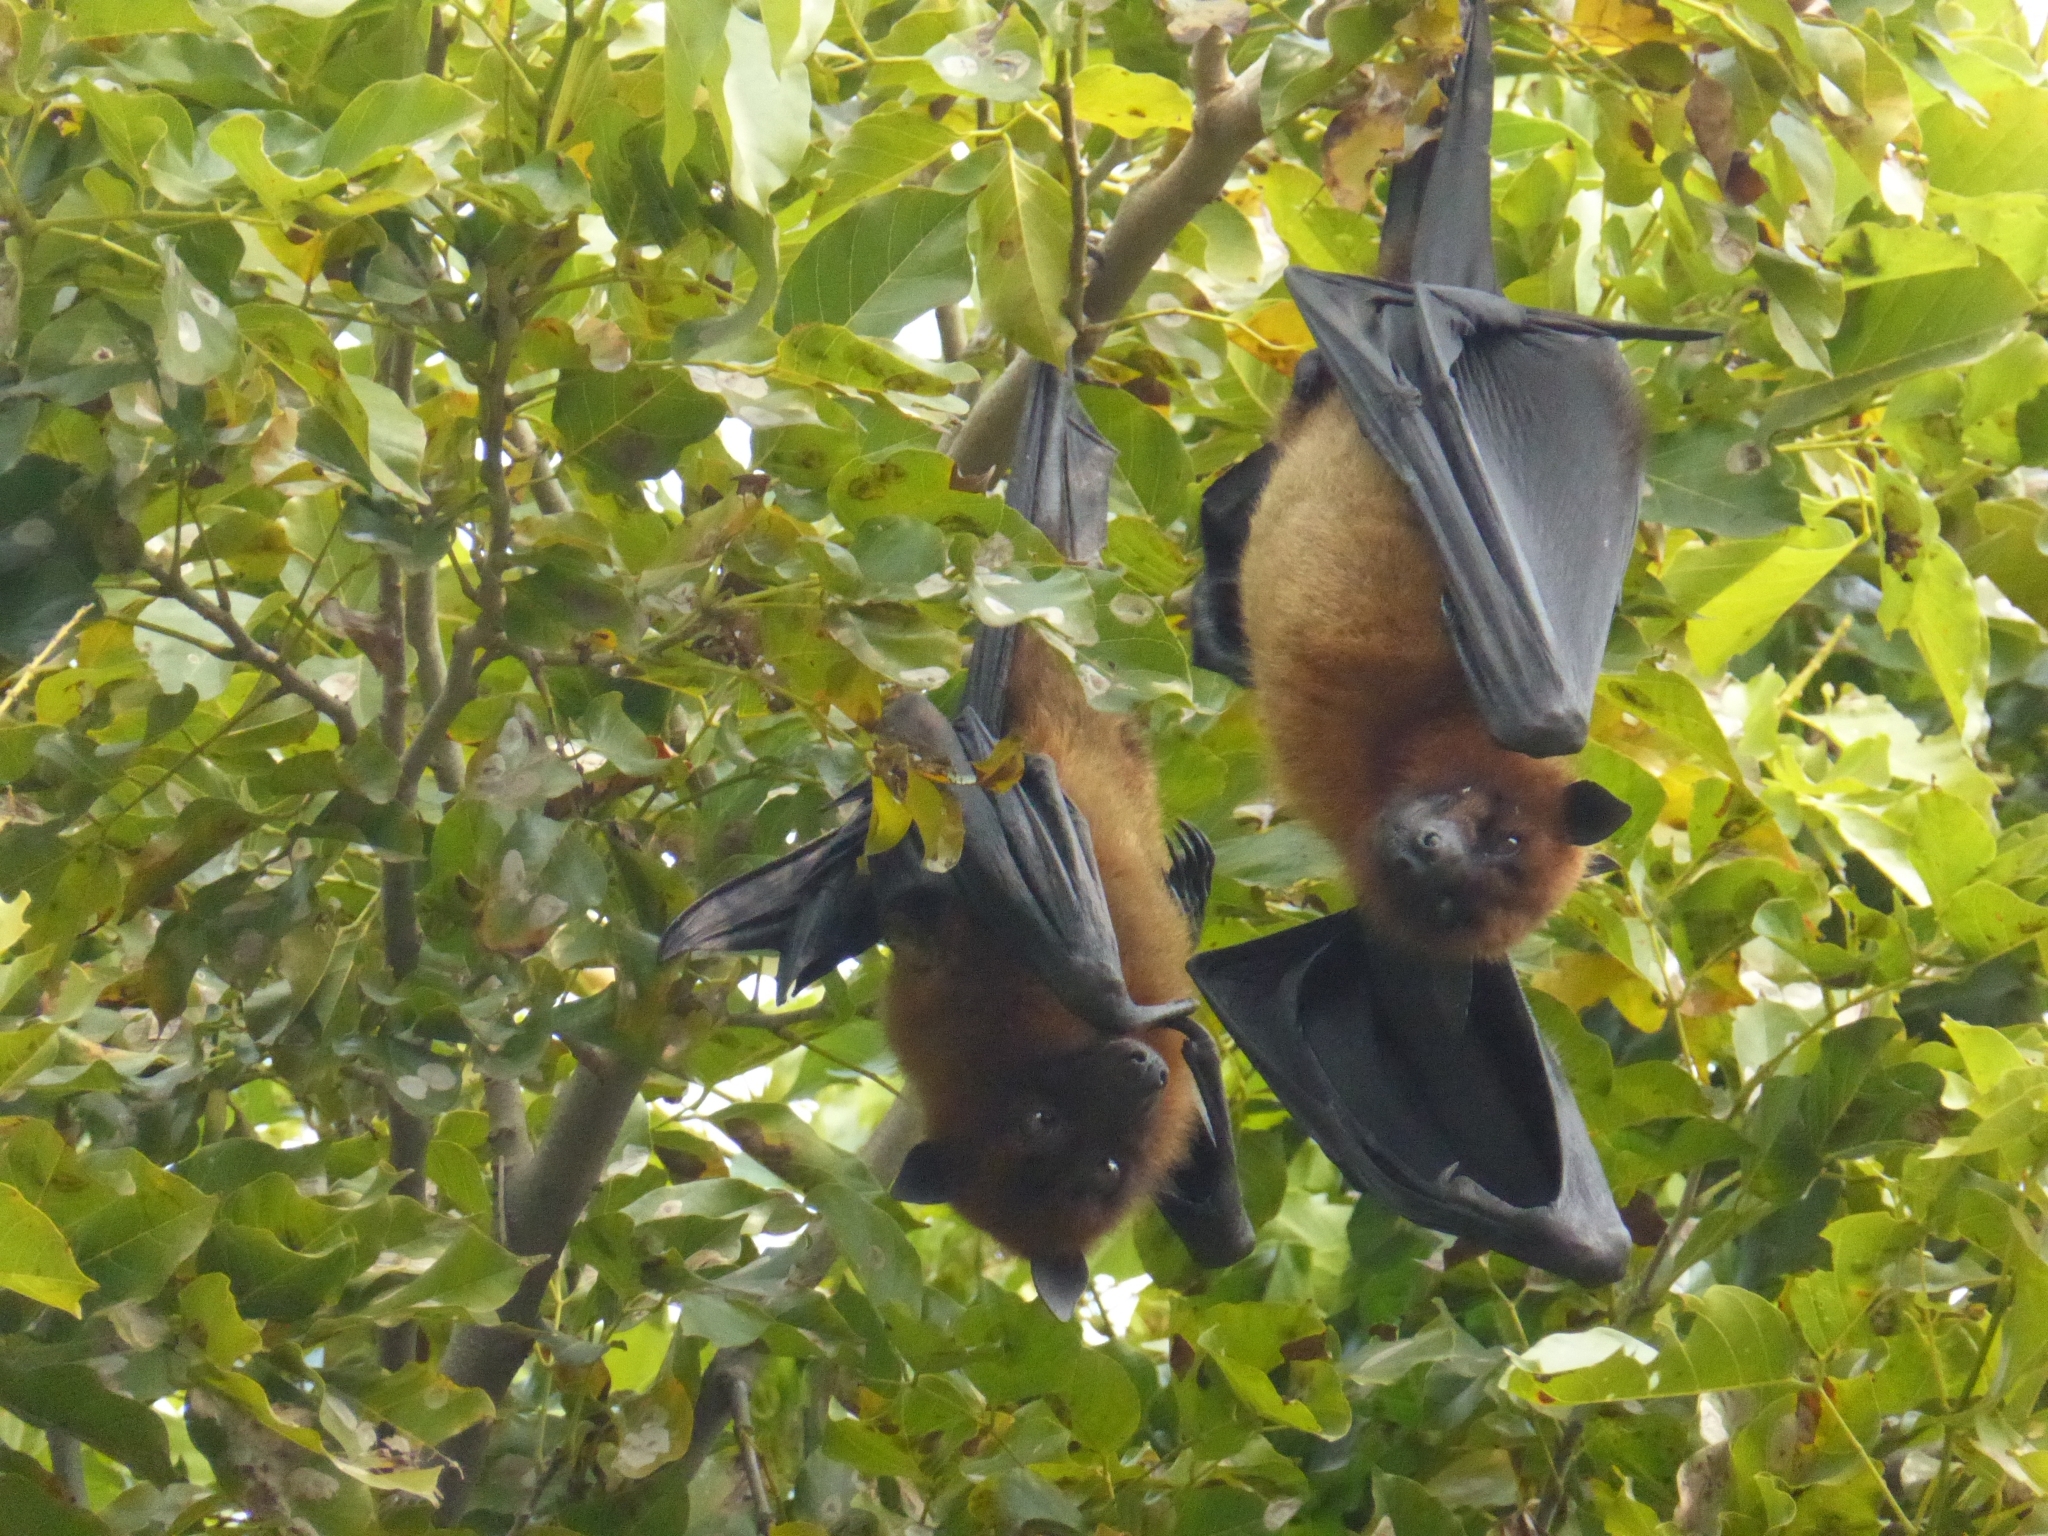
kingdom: Animalia
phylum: Chordata
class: Mammalia
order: Chiroptera
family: Pteropodidae
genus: Pteropus
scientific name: Pteropus vampyrus
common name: Large flying fox
